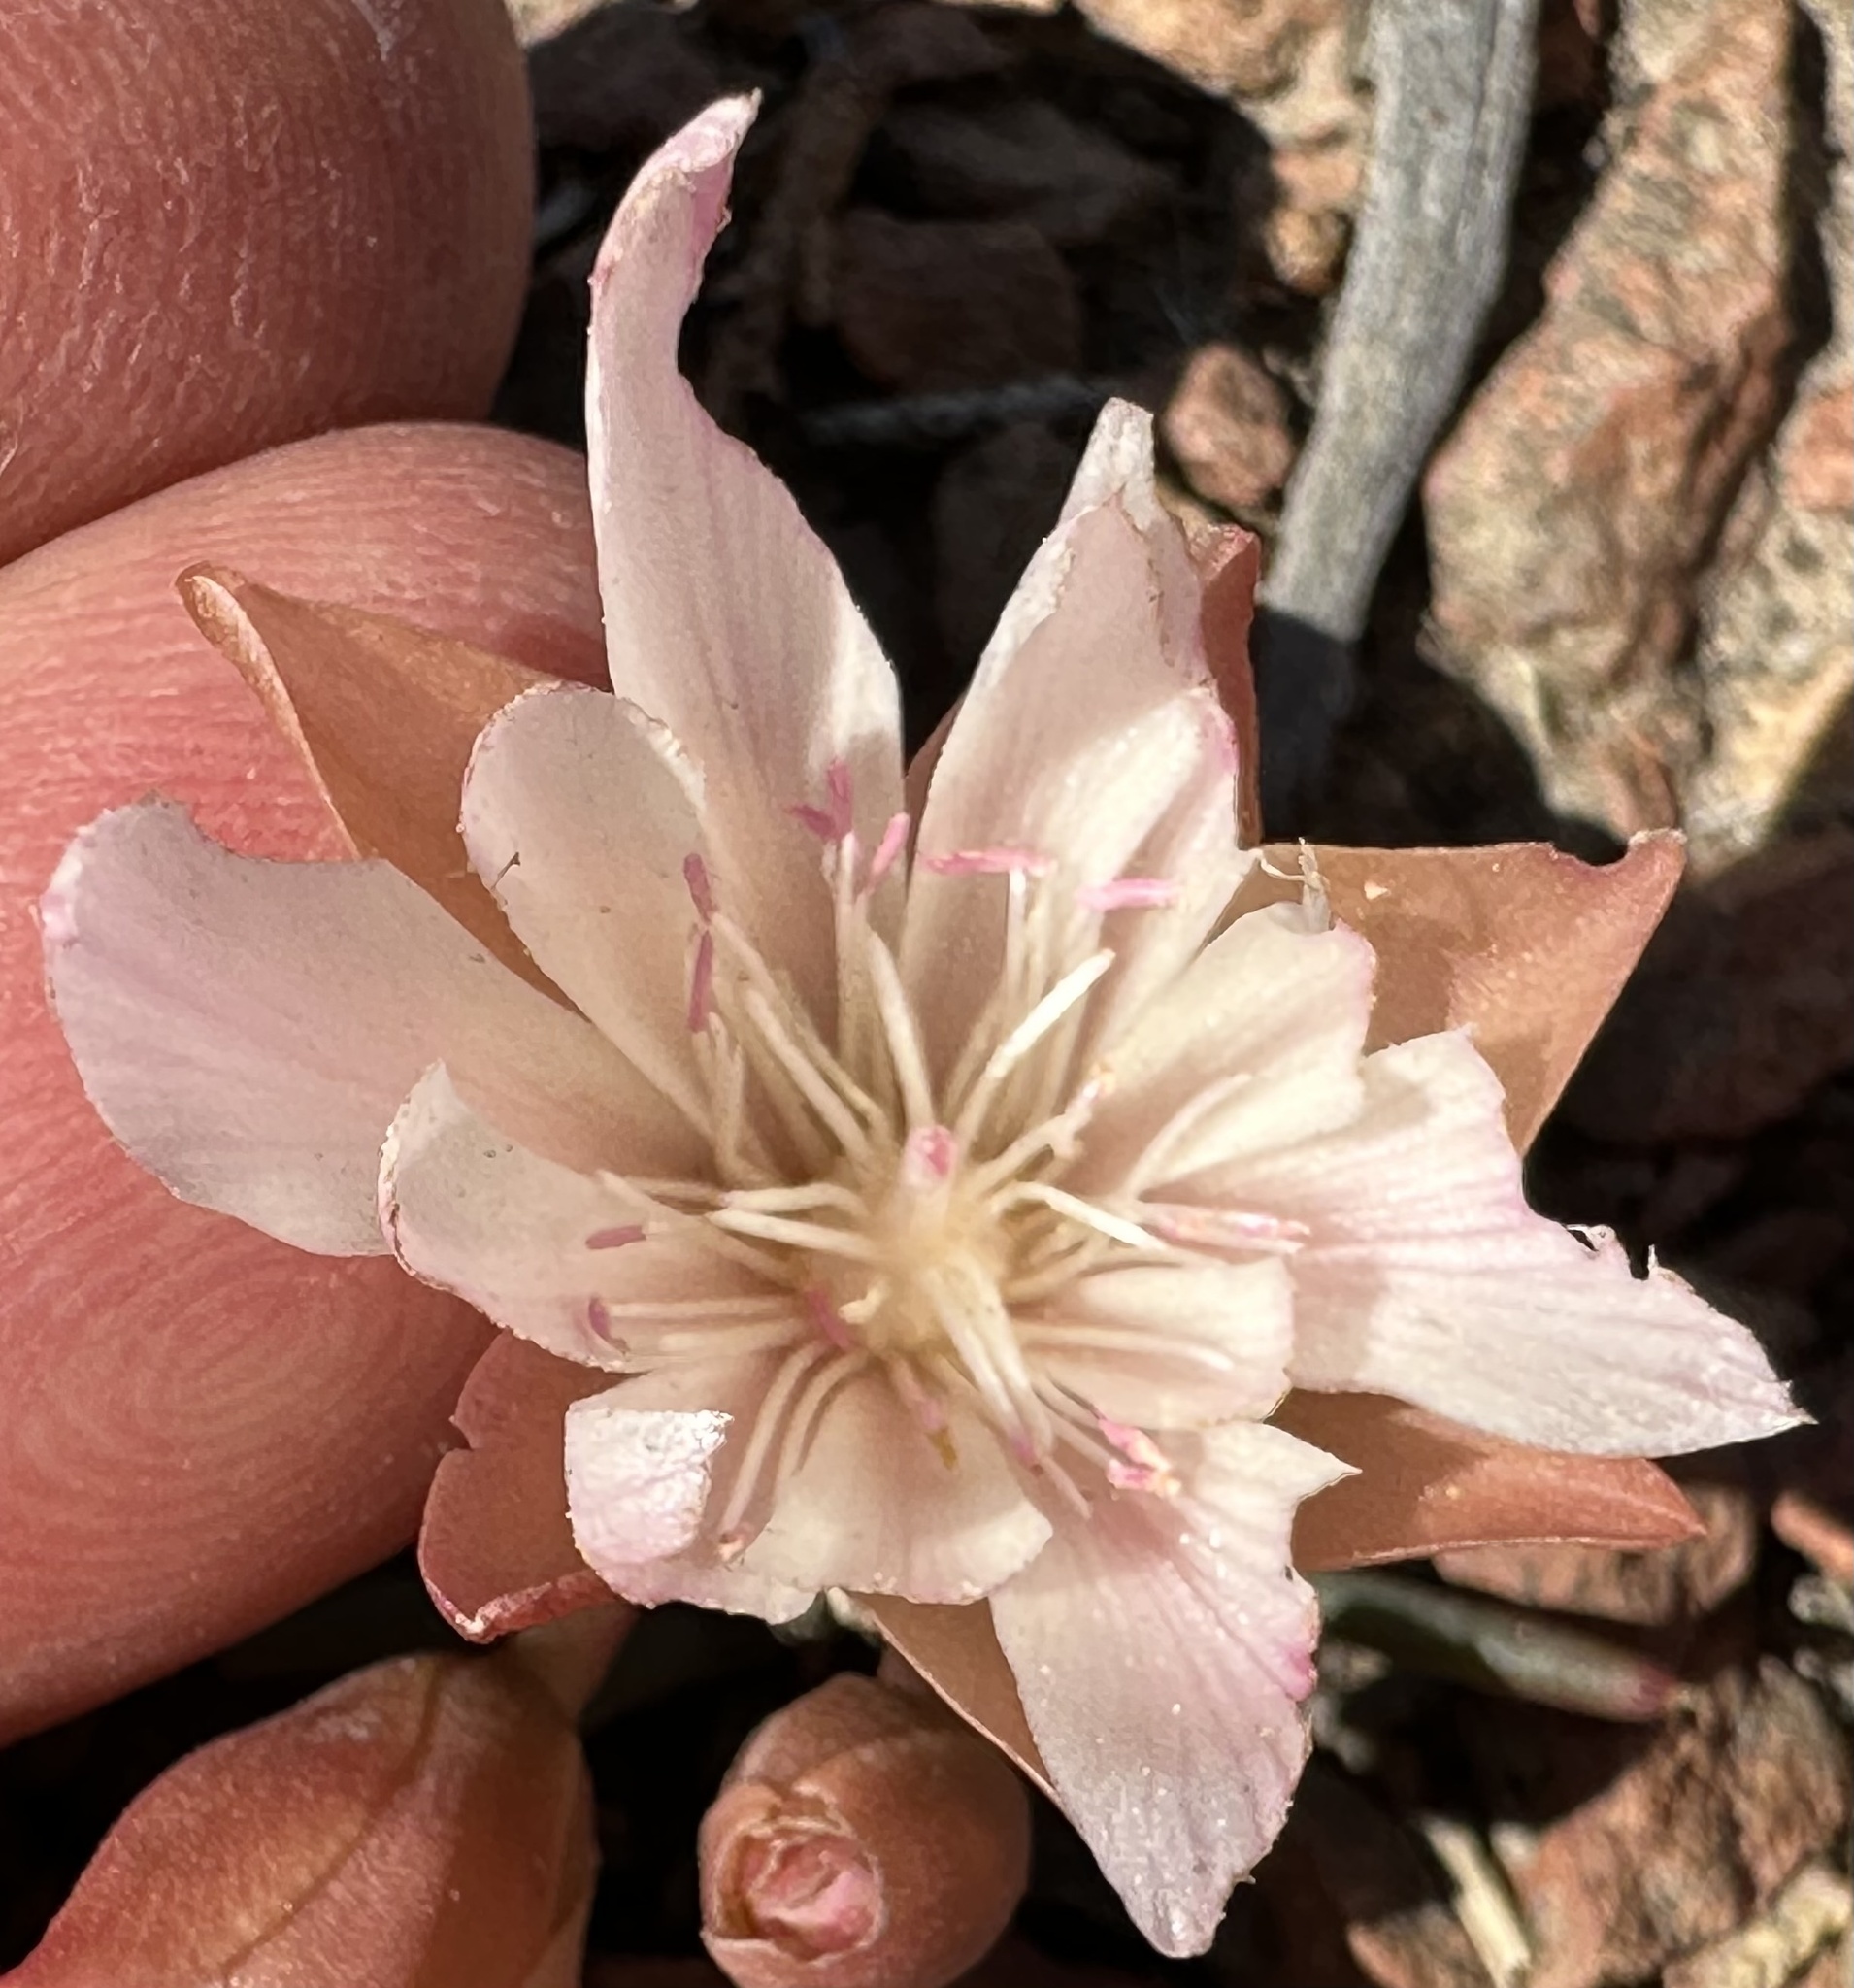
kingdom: Plantae
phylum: Tracheophyta
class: Magnoliopsida
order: Caryophyllales
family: Montiaceae
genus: Lewisia
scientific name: Lewisia rediviva
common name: Bitter-root
